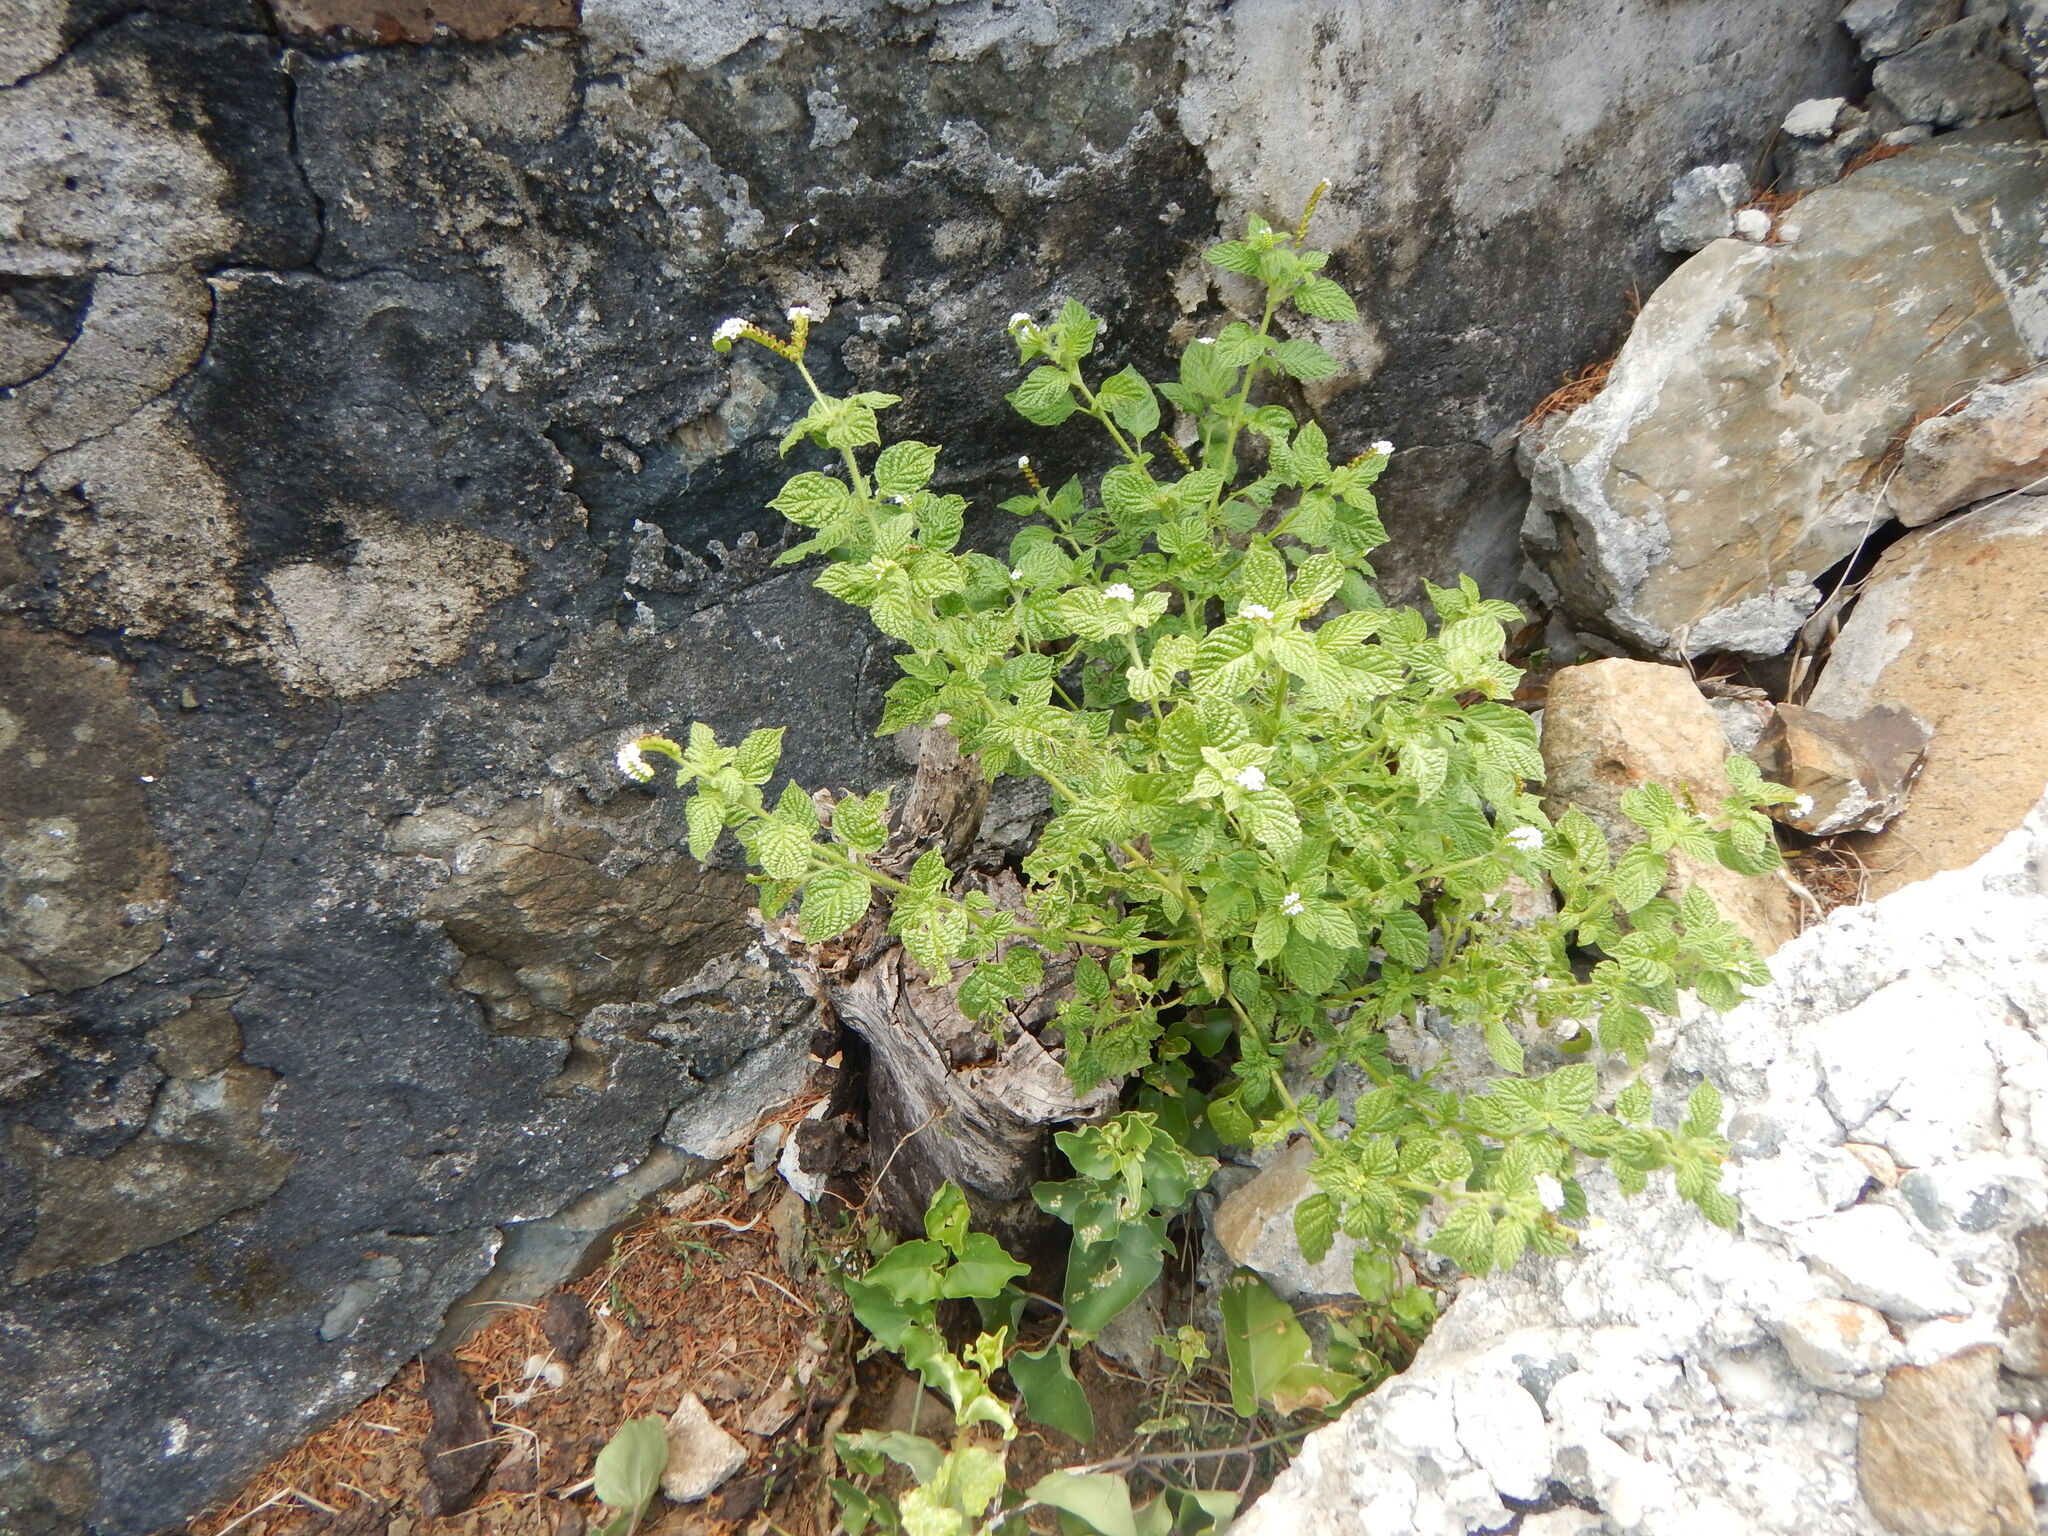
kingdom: Plantae
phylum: Tracheophyta
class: Magnoliopsida
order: Boraginales
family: Heliotropiaceae
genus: Heliotropium
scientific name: Heliotropium angiospermum
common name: Eye bright
